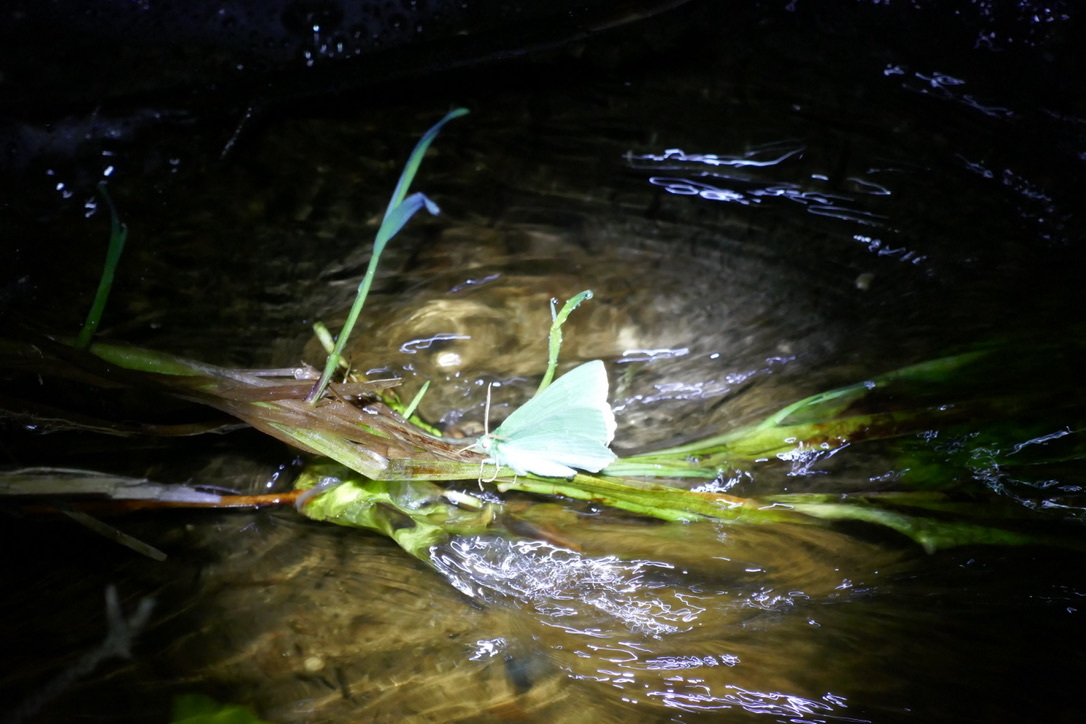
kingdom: Animalia
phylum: Arthropoda
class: Insecta
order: Lepidoptera
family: Geometridae
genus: Geometra
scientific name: Geometra papilionaria
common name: Large emerald
